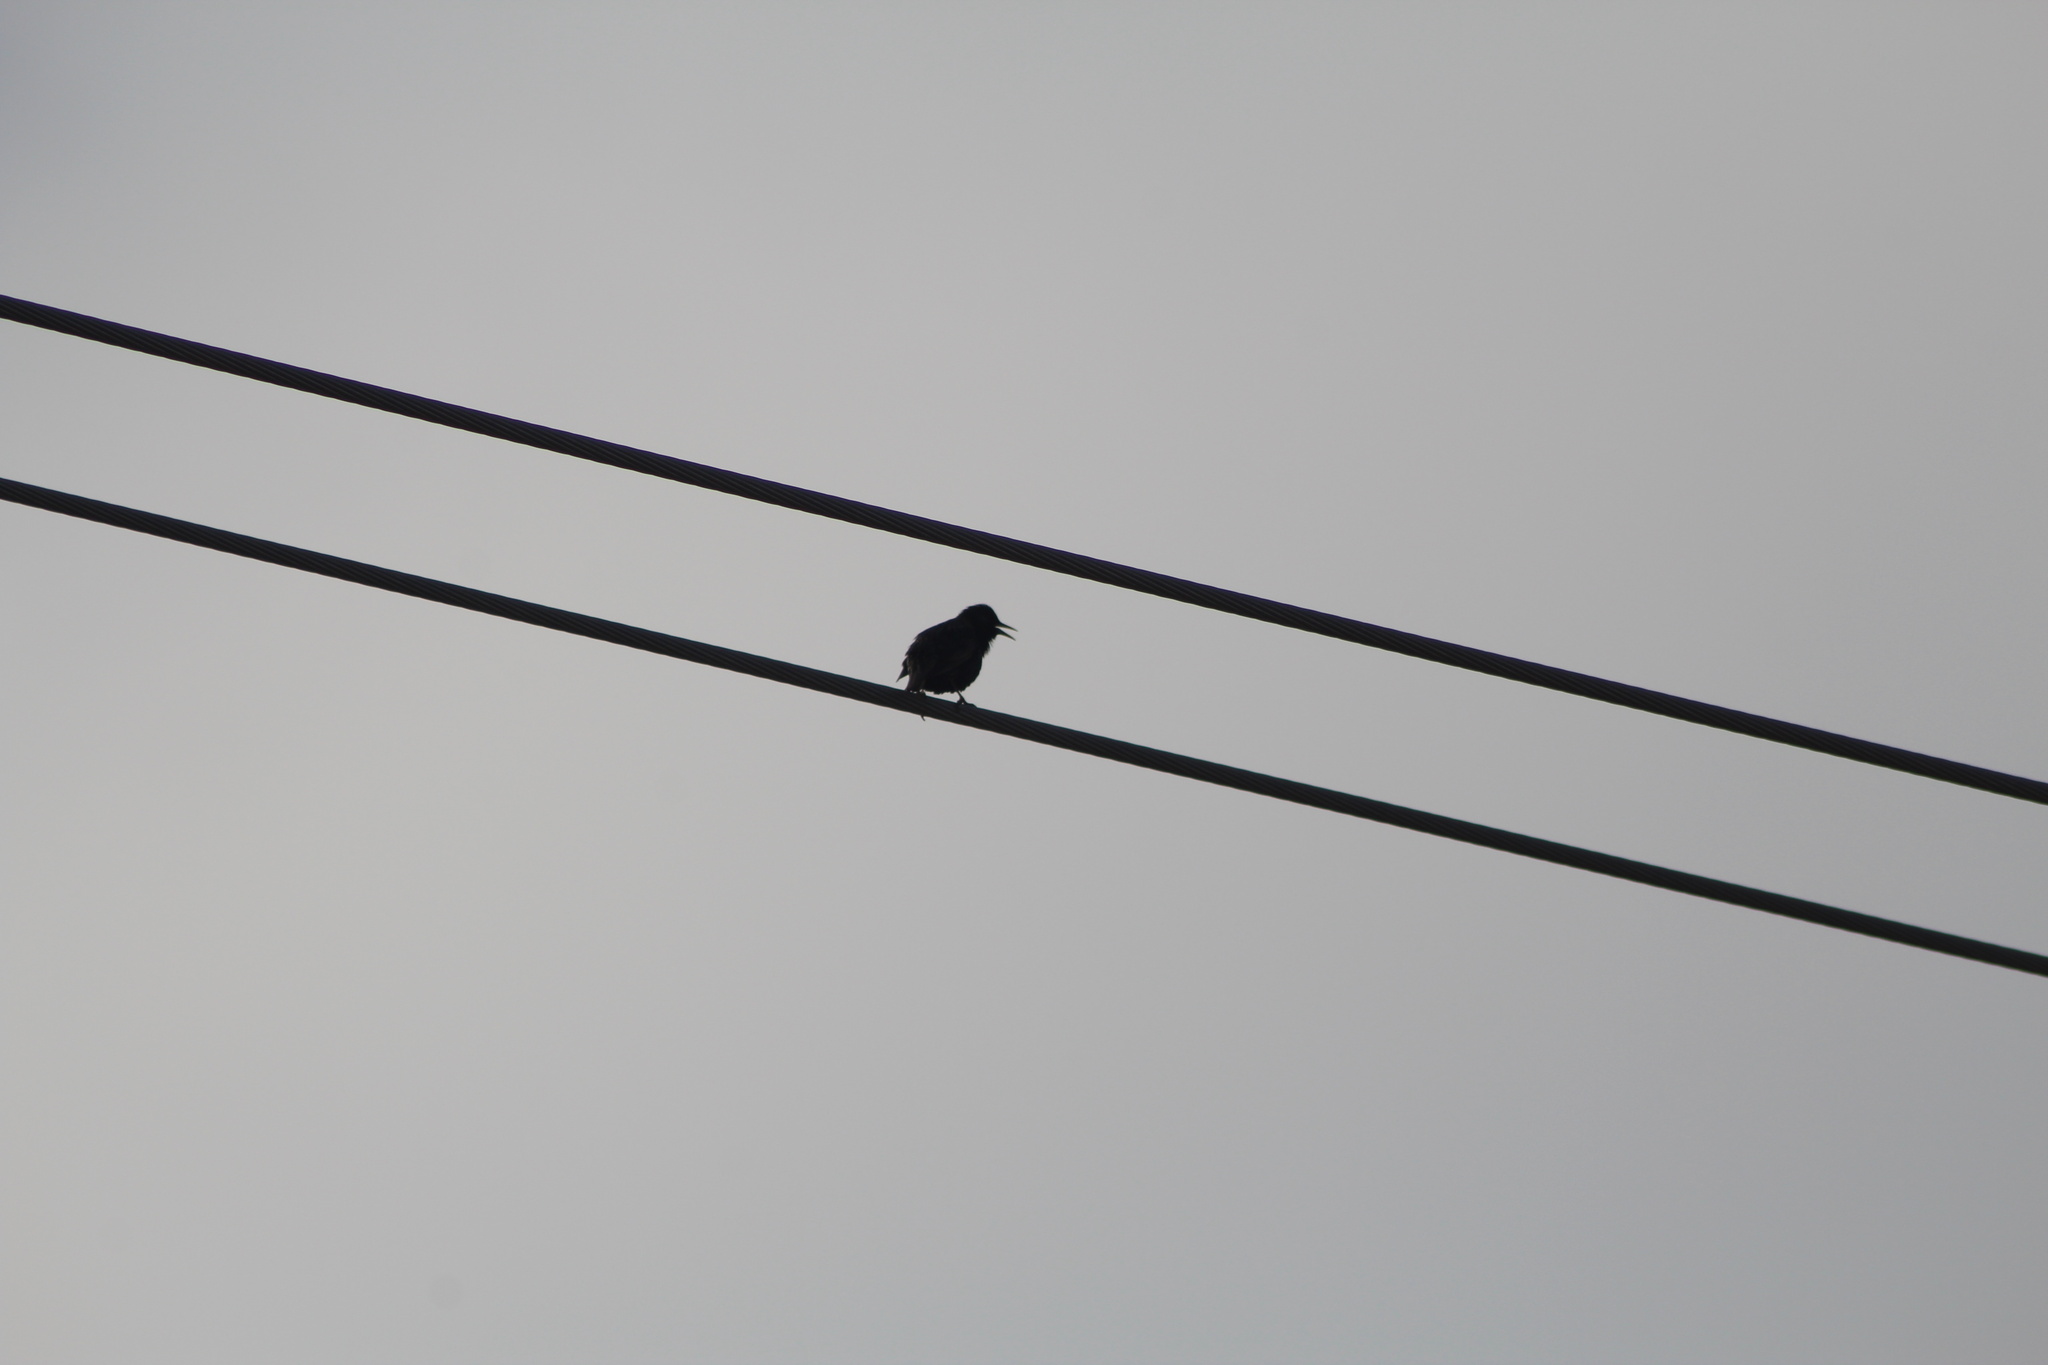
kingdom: Animalia
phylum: Chordata
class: Aves
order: Passeriformes
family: Sturnidae
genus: Sturnus
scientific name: Sturnus vulgaris
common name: Common starling
